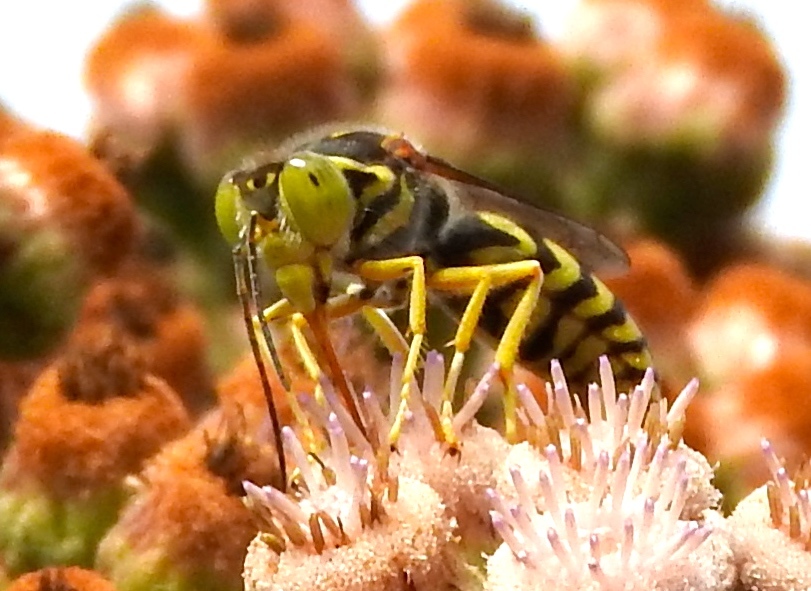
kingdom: Animalia
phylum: Arthropoda
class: Insecta
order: Hymenoptera
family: Crabronidae
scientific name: Crabronidae
